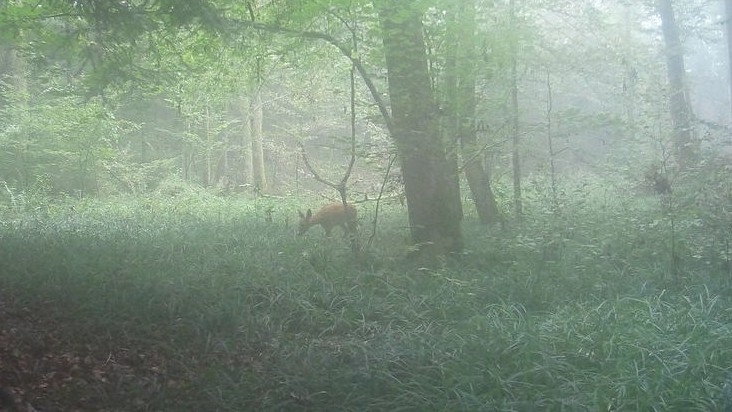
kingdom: Animalia
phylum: Chordata
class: Mammalia
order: Artiodactyla
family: Cervidae
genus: Capreolus
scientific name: Capreolus capreolus
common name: Western roe deer
